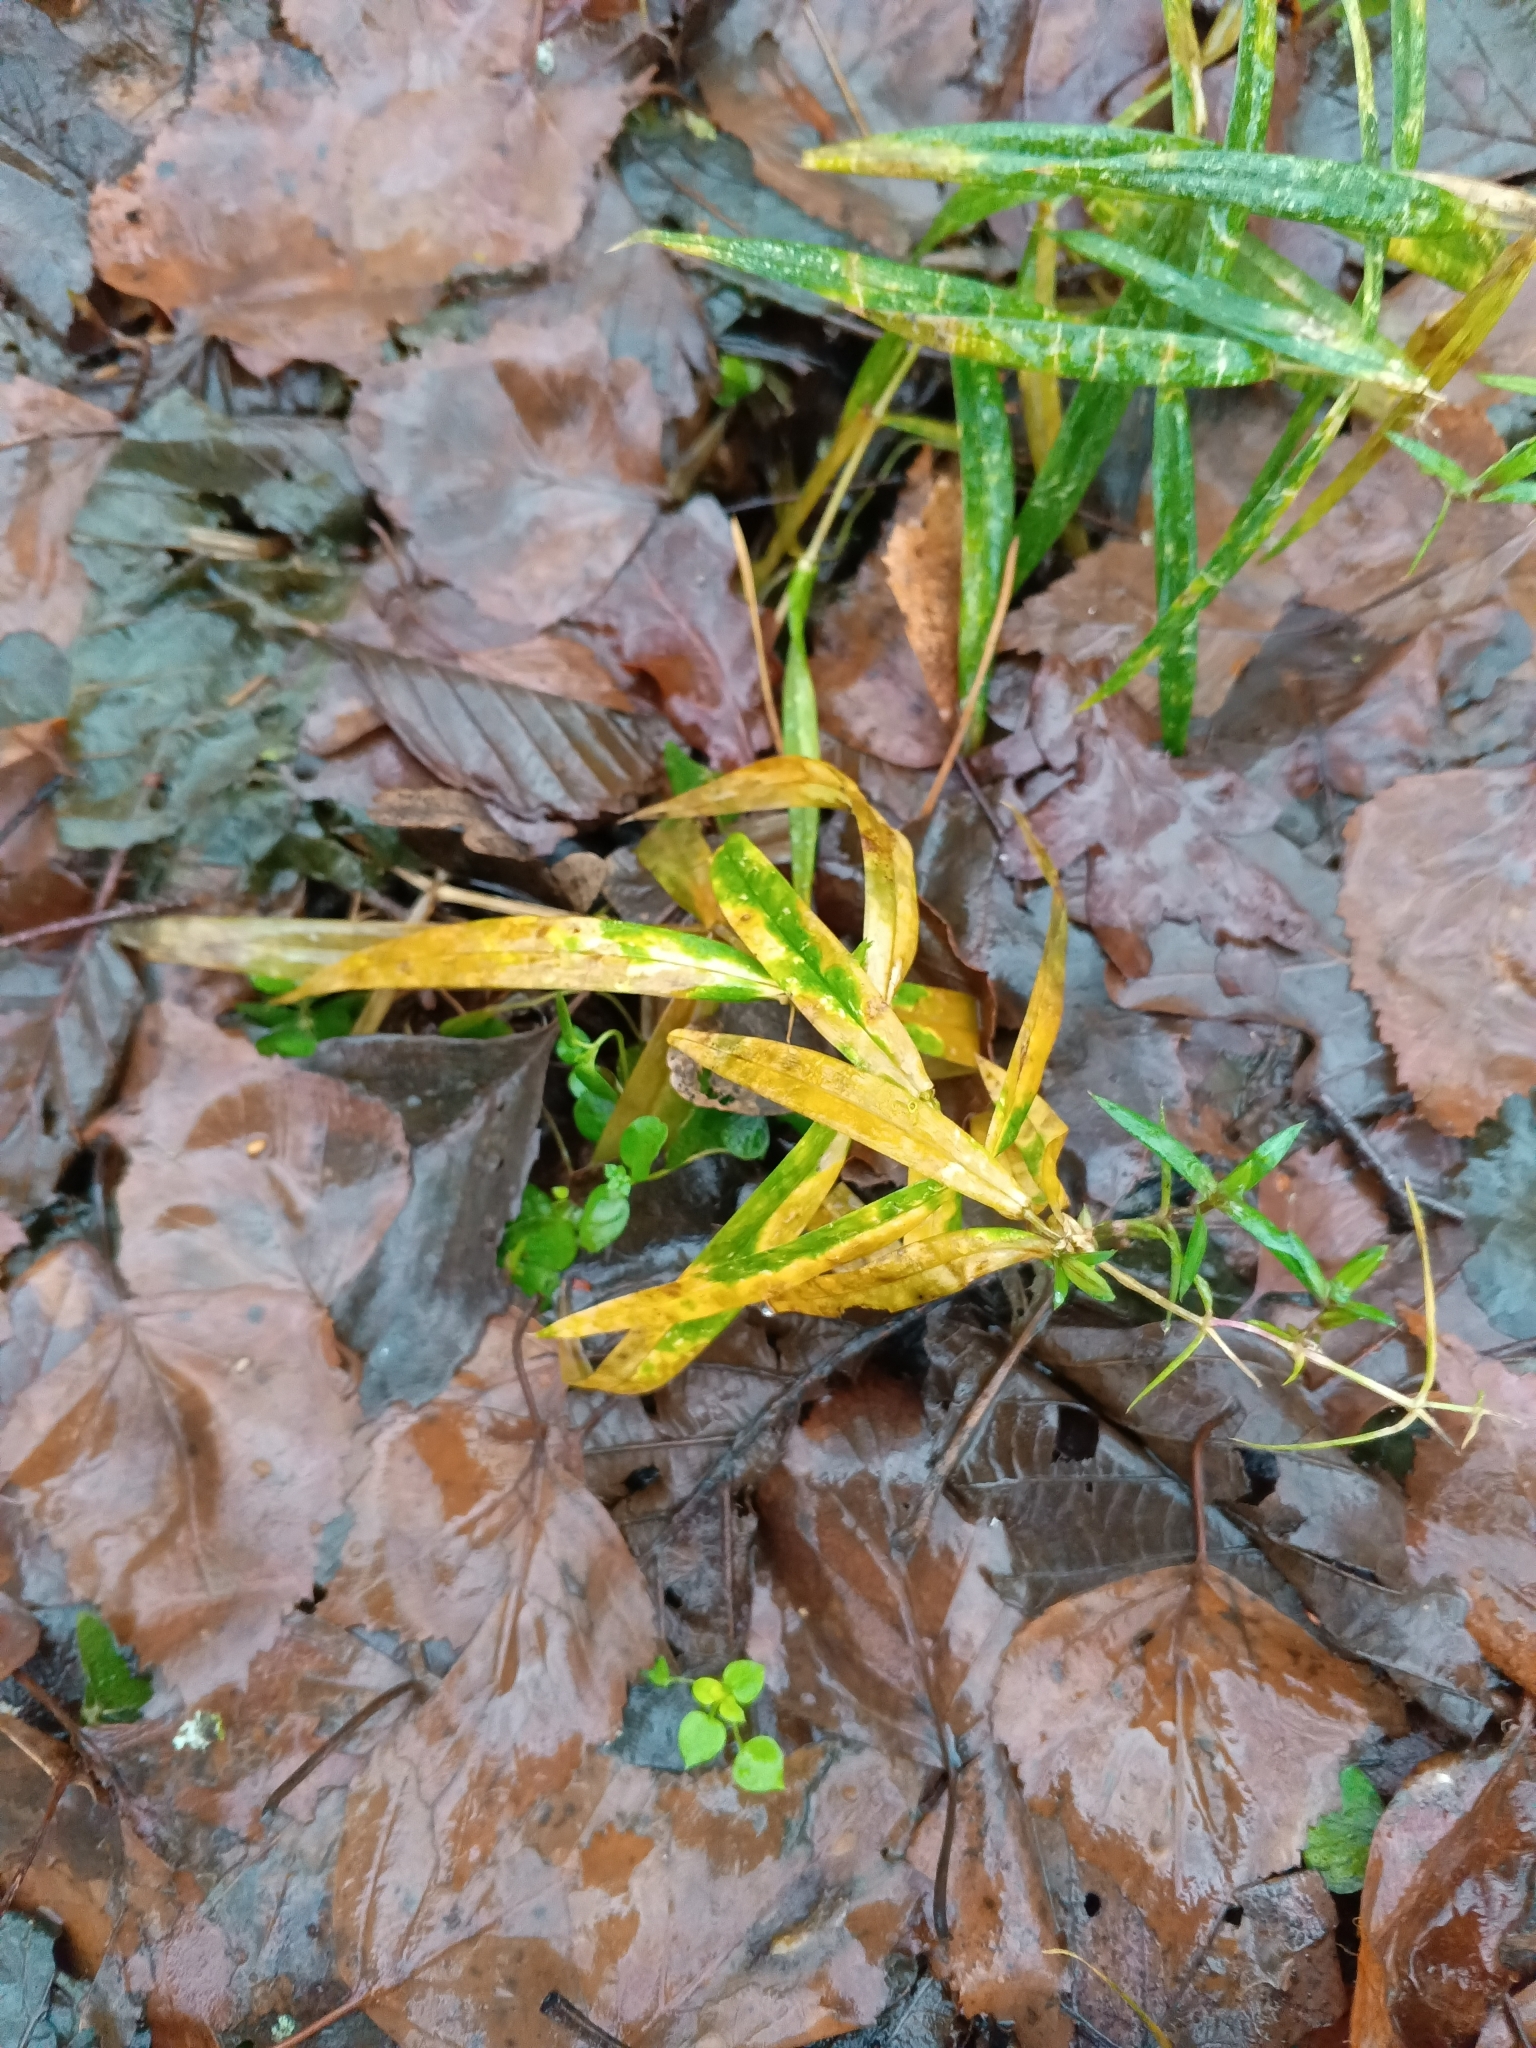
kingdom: Plantae
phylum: Tracheophyta
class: Magnoliopsida
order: Caryophyllales
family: Caryophyllaceae
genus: Rabelera
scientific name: Rabelera holostea
